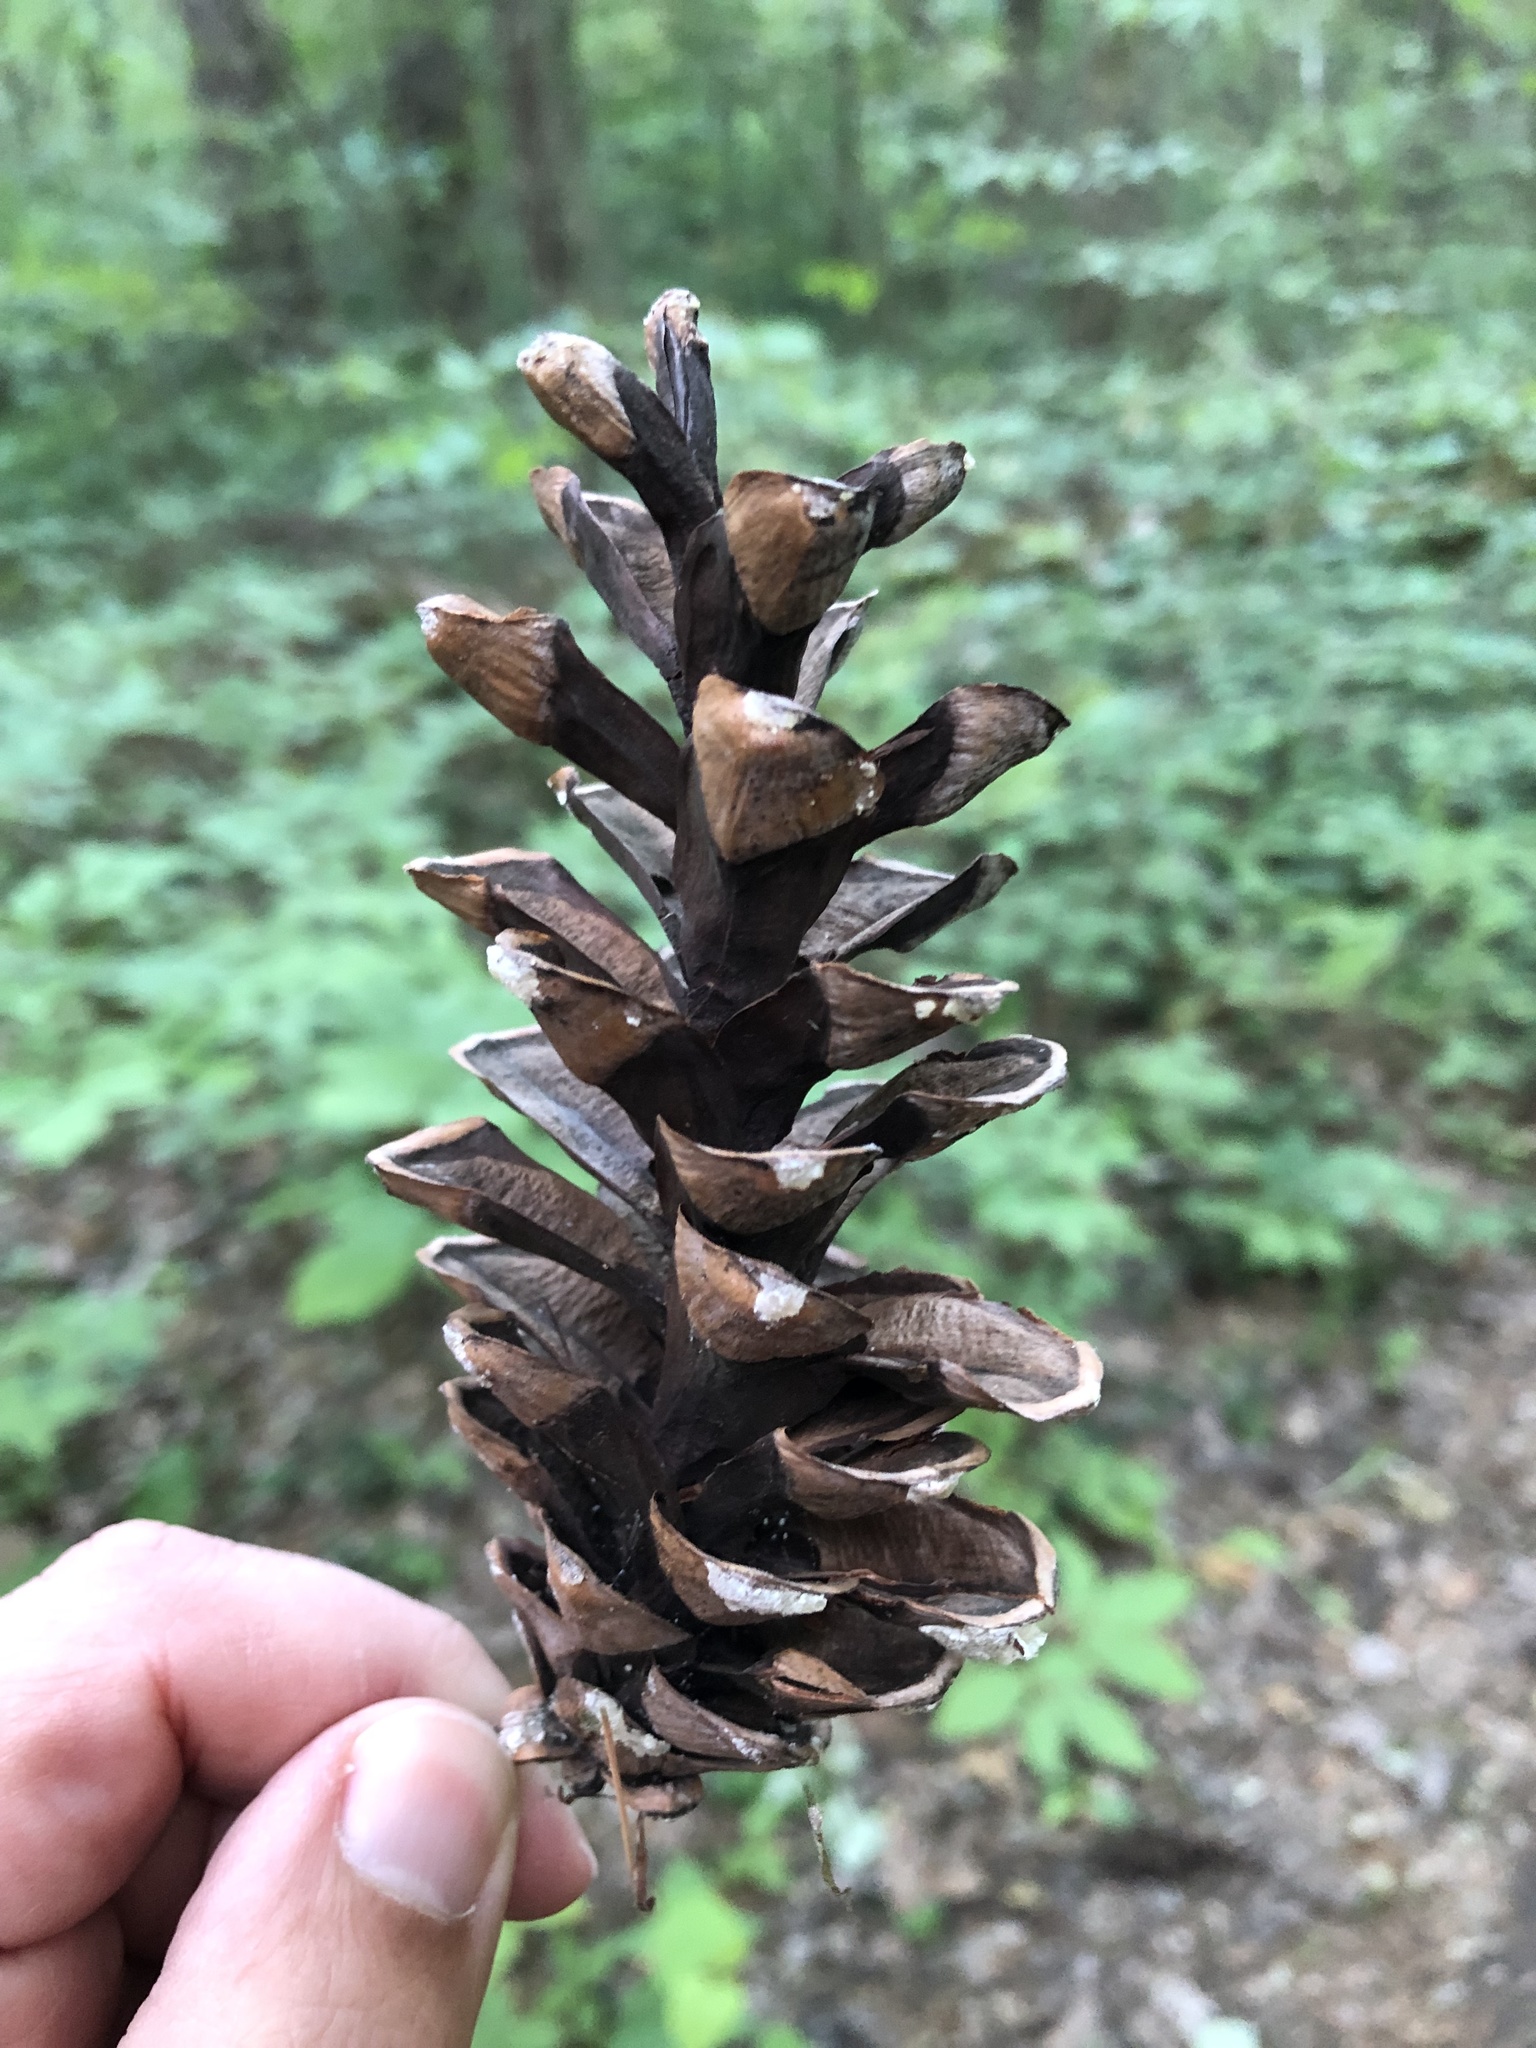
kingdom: Plantae
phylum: Tracheophyta
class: Pinopsida
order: Pinales
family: Pinaceae
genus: Pinus
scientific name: Pinus strobus
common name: Weymouth pine
